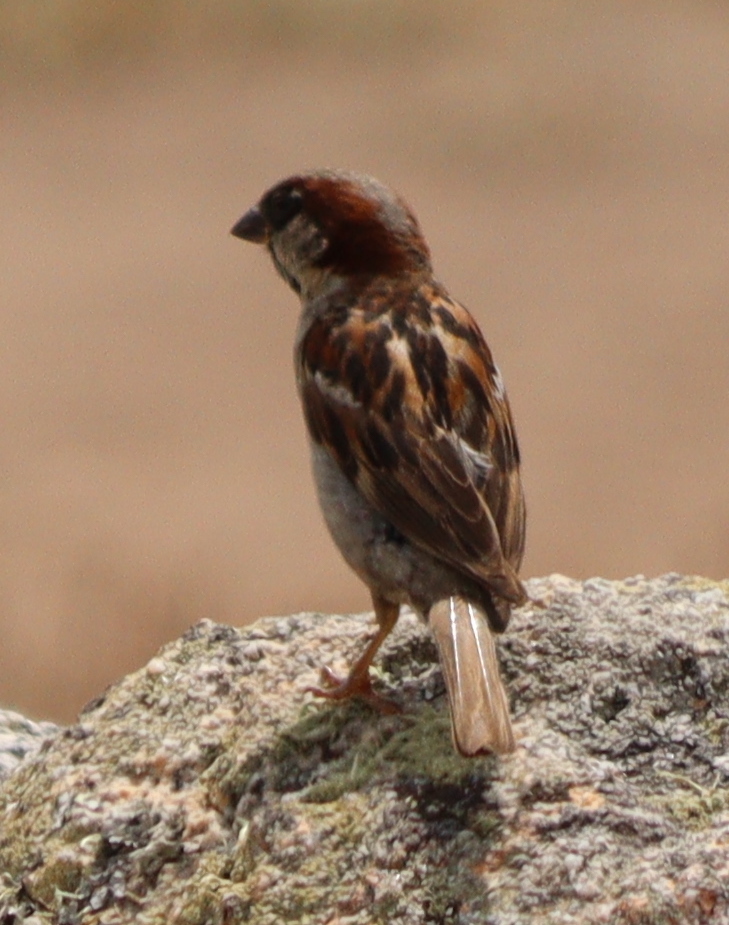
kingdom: Animalia
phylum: Chordata
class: Aves
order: Passeriformes
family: Passeridae
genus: Passer
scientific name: Passer domesticus
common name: House sparrow
